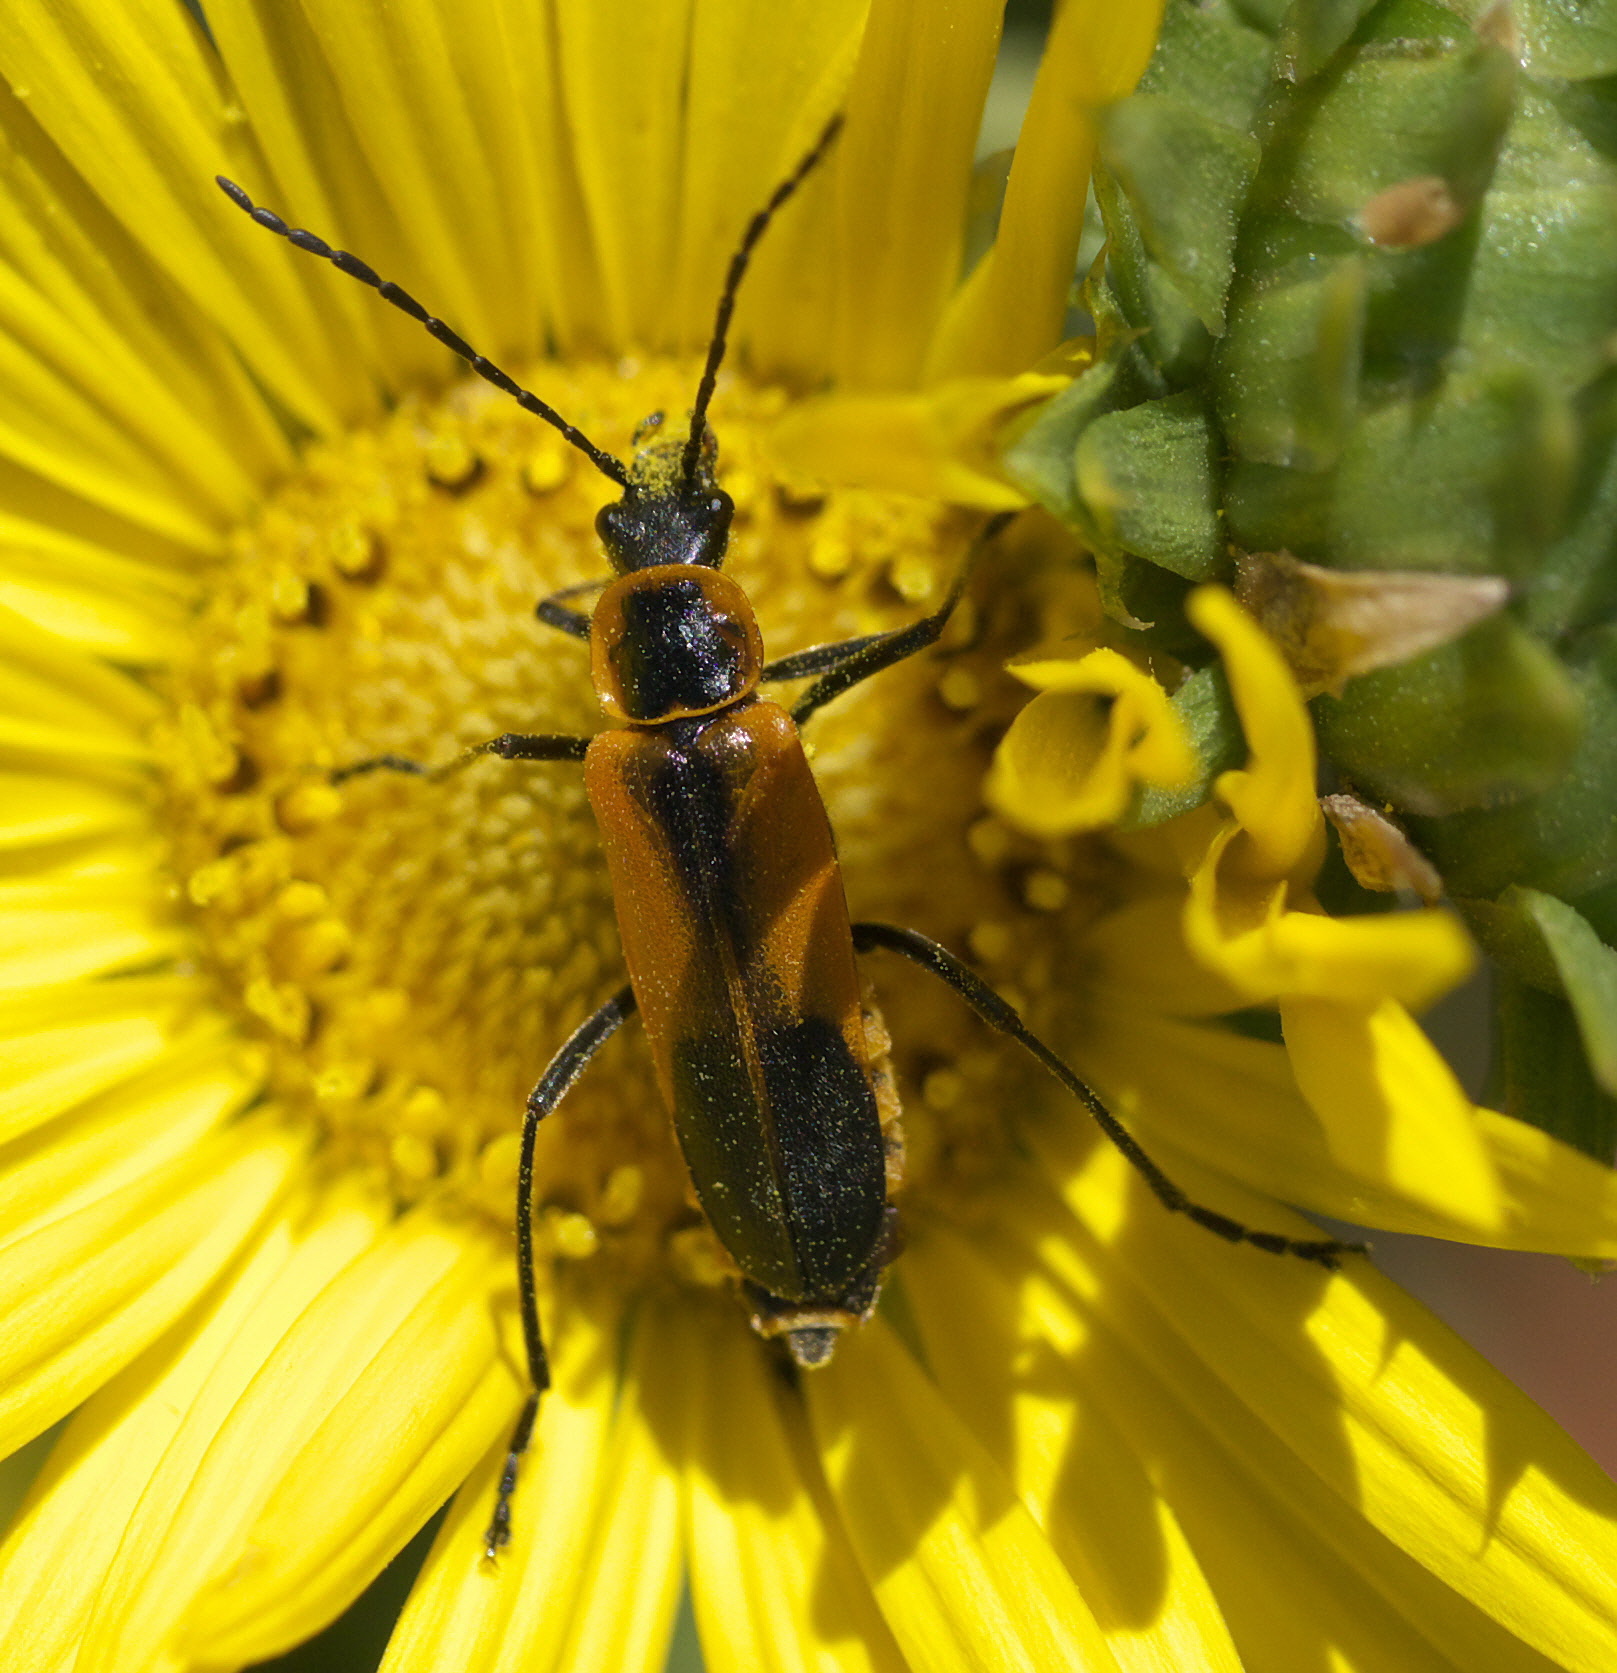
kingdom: Animalia
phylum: Arthropoda
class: Insecta
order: Coleoptera
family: Cantharidae
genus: Chauliognathus
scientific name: Chauliognathus limbicollis
